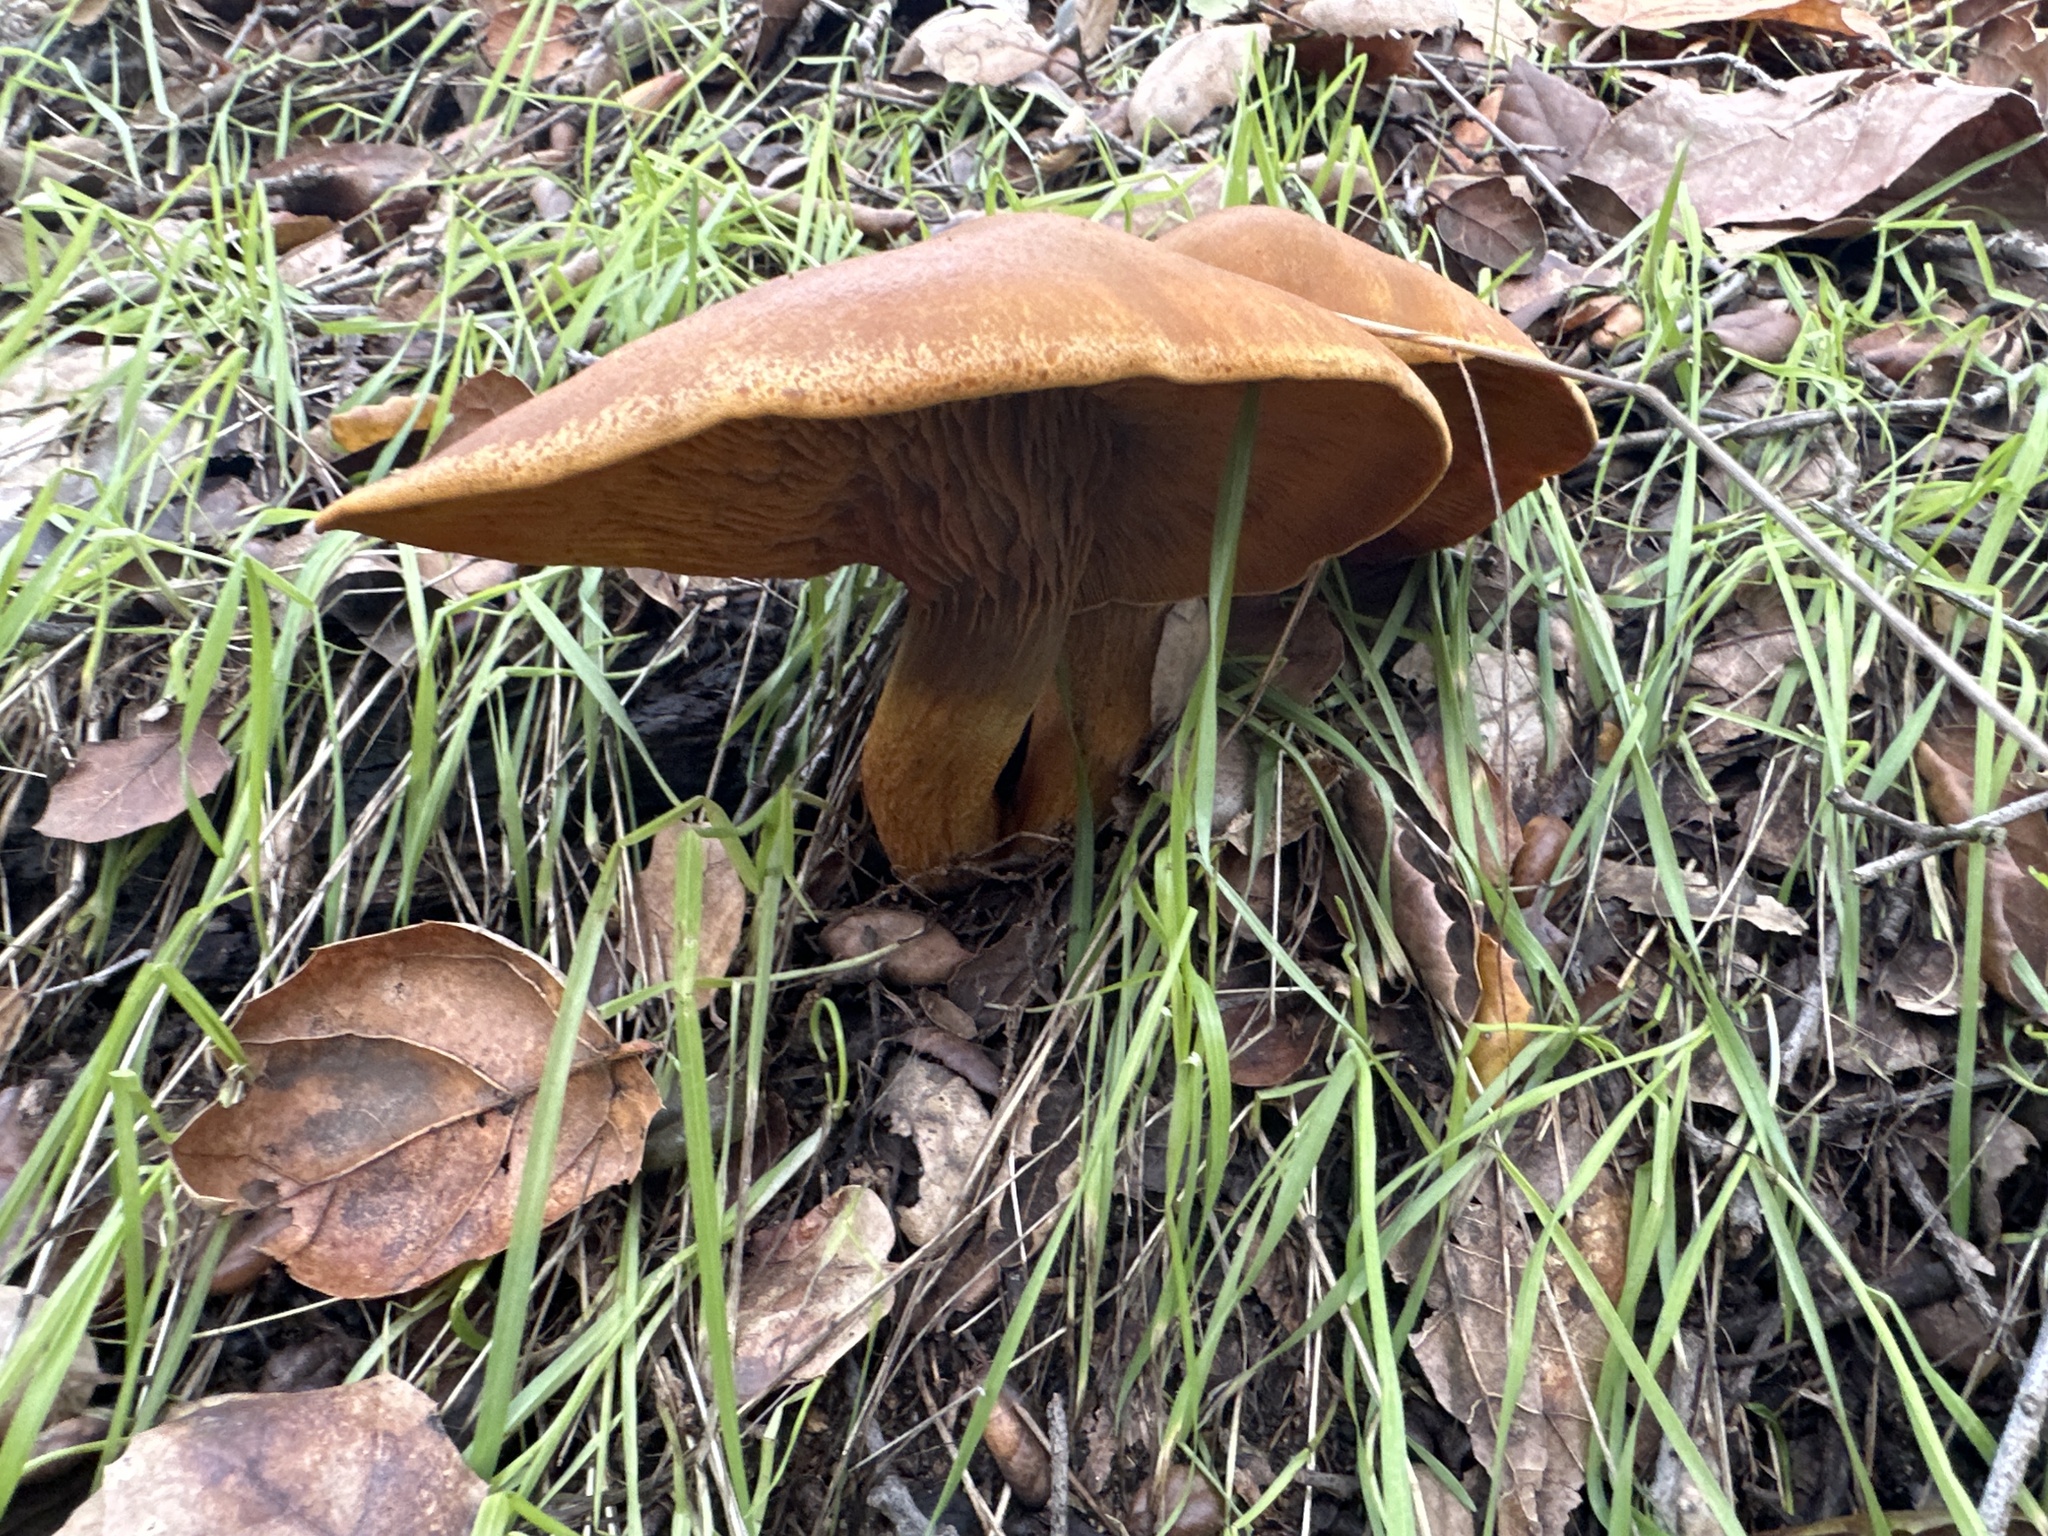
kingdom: Fungi
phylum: Basidiomycota
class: Agaricomycetes
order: Agaricales
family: Omphalotaceae
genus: Omphalotus
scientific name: Omphalotus olivascens
